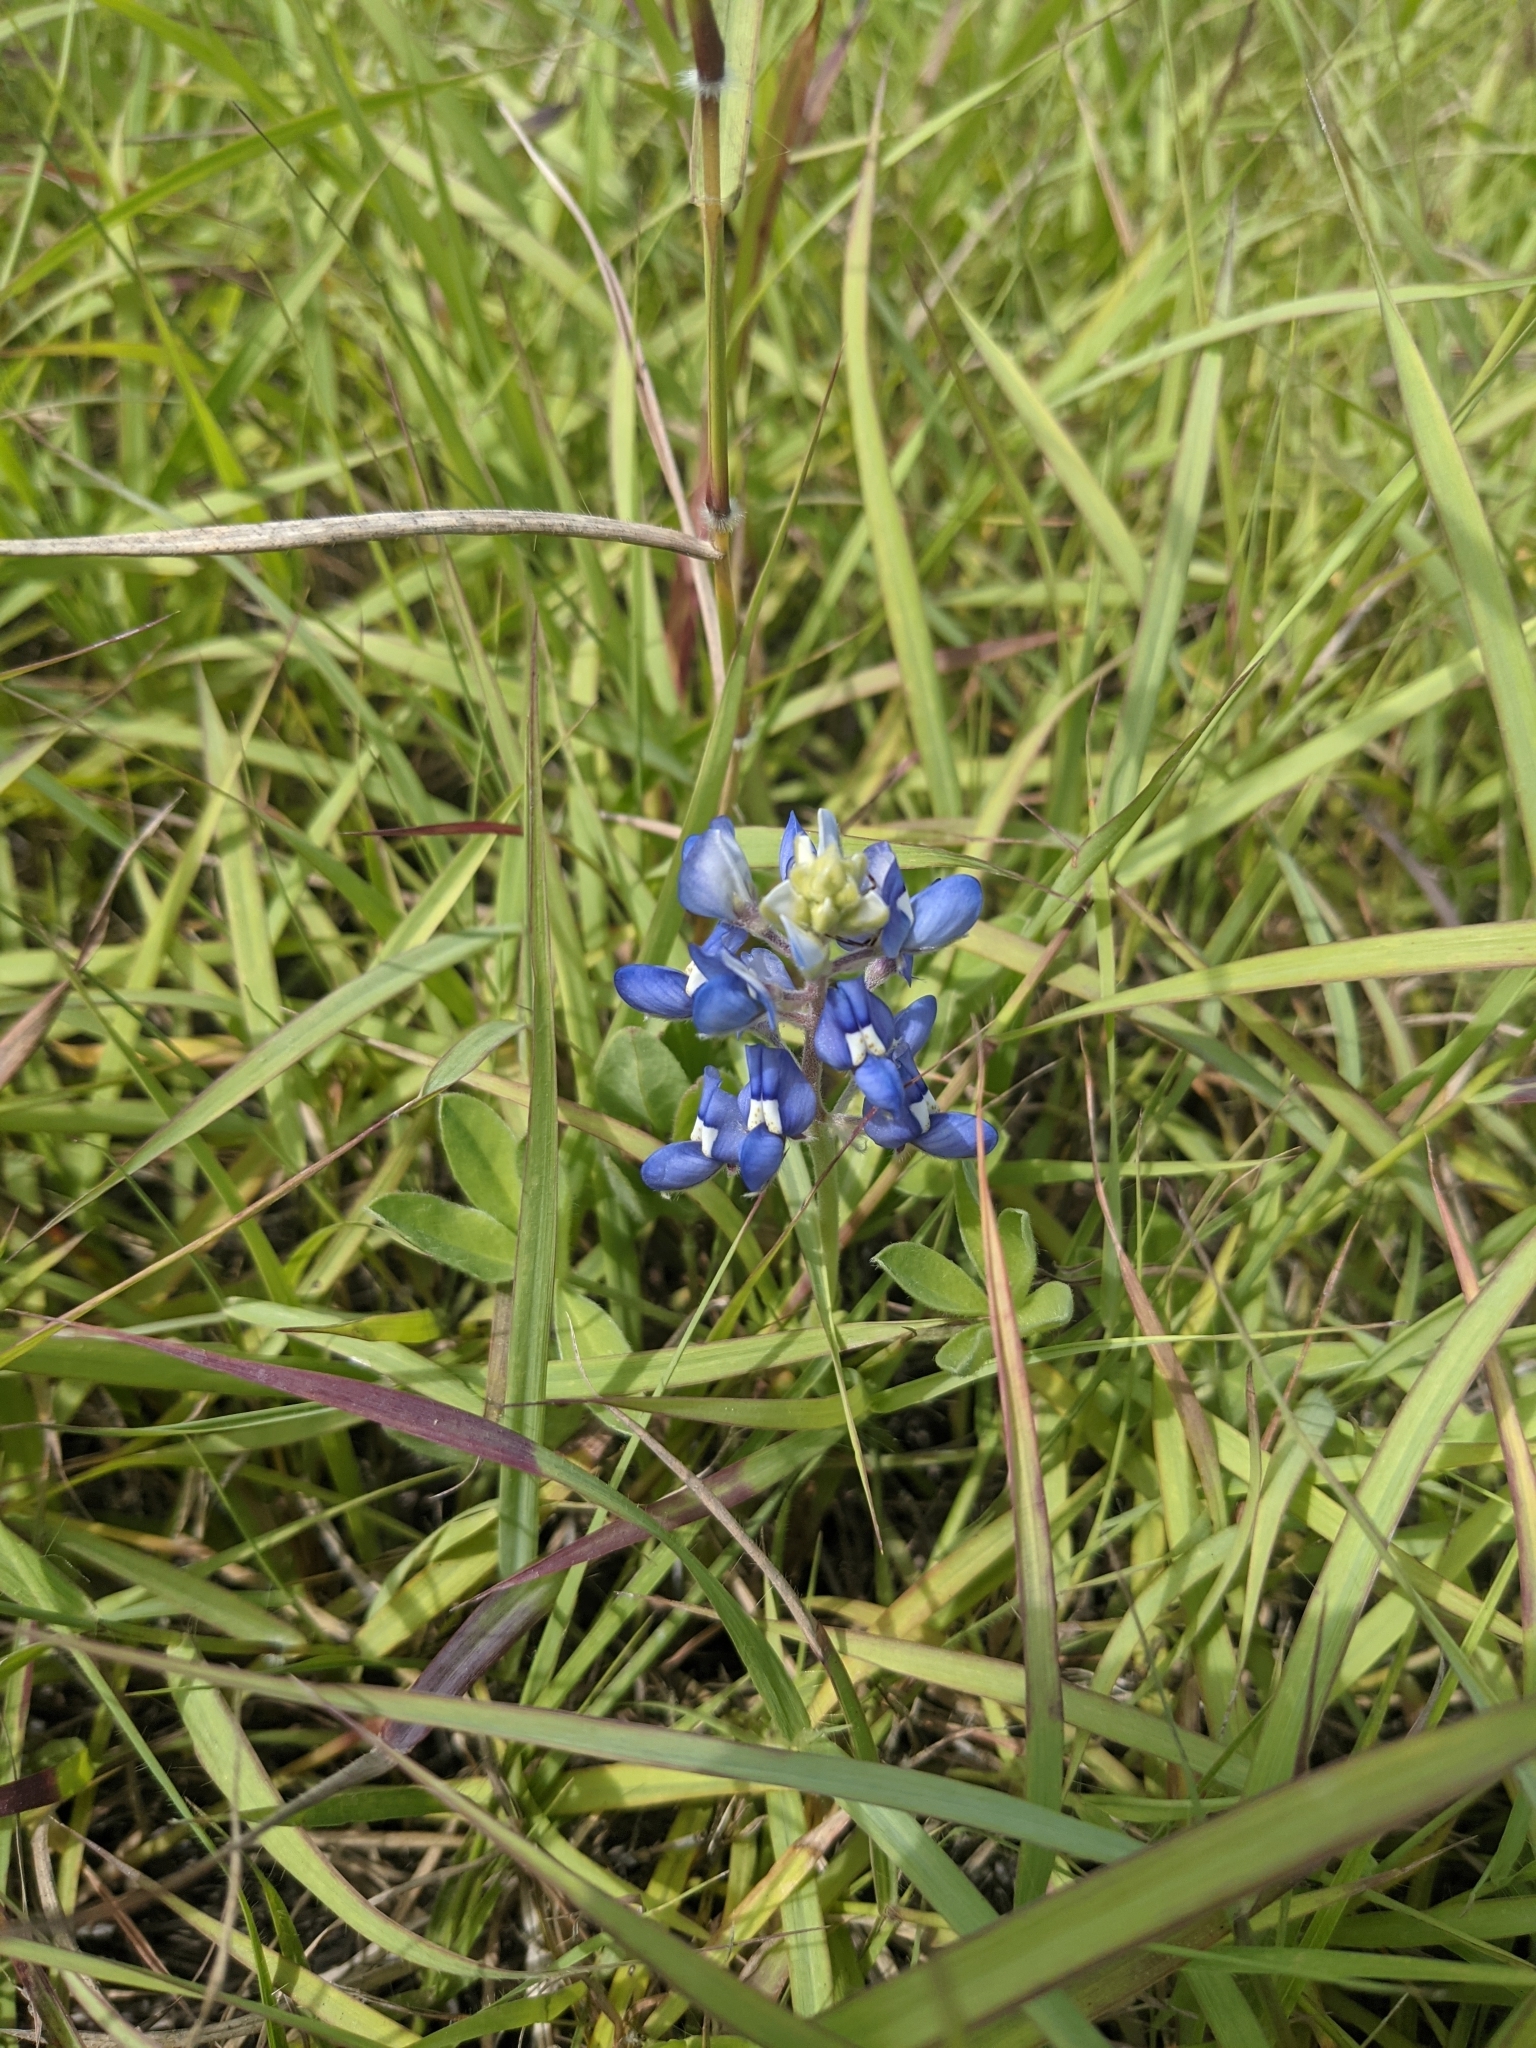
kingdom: Plantae
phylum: Tracheophyta
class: Magnoliopsida
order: Fabales
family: Fabaceae
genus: Lupinus
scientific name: Lupinus texensis
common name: Texas bluebonnet
